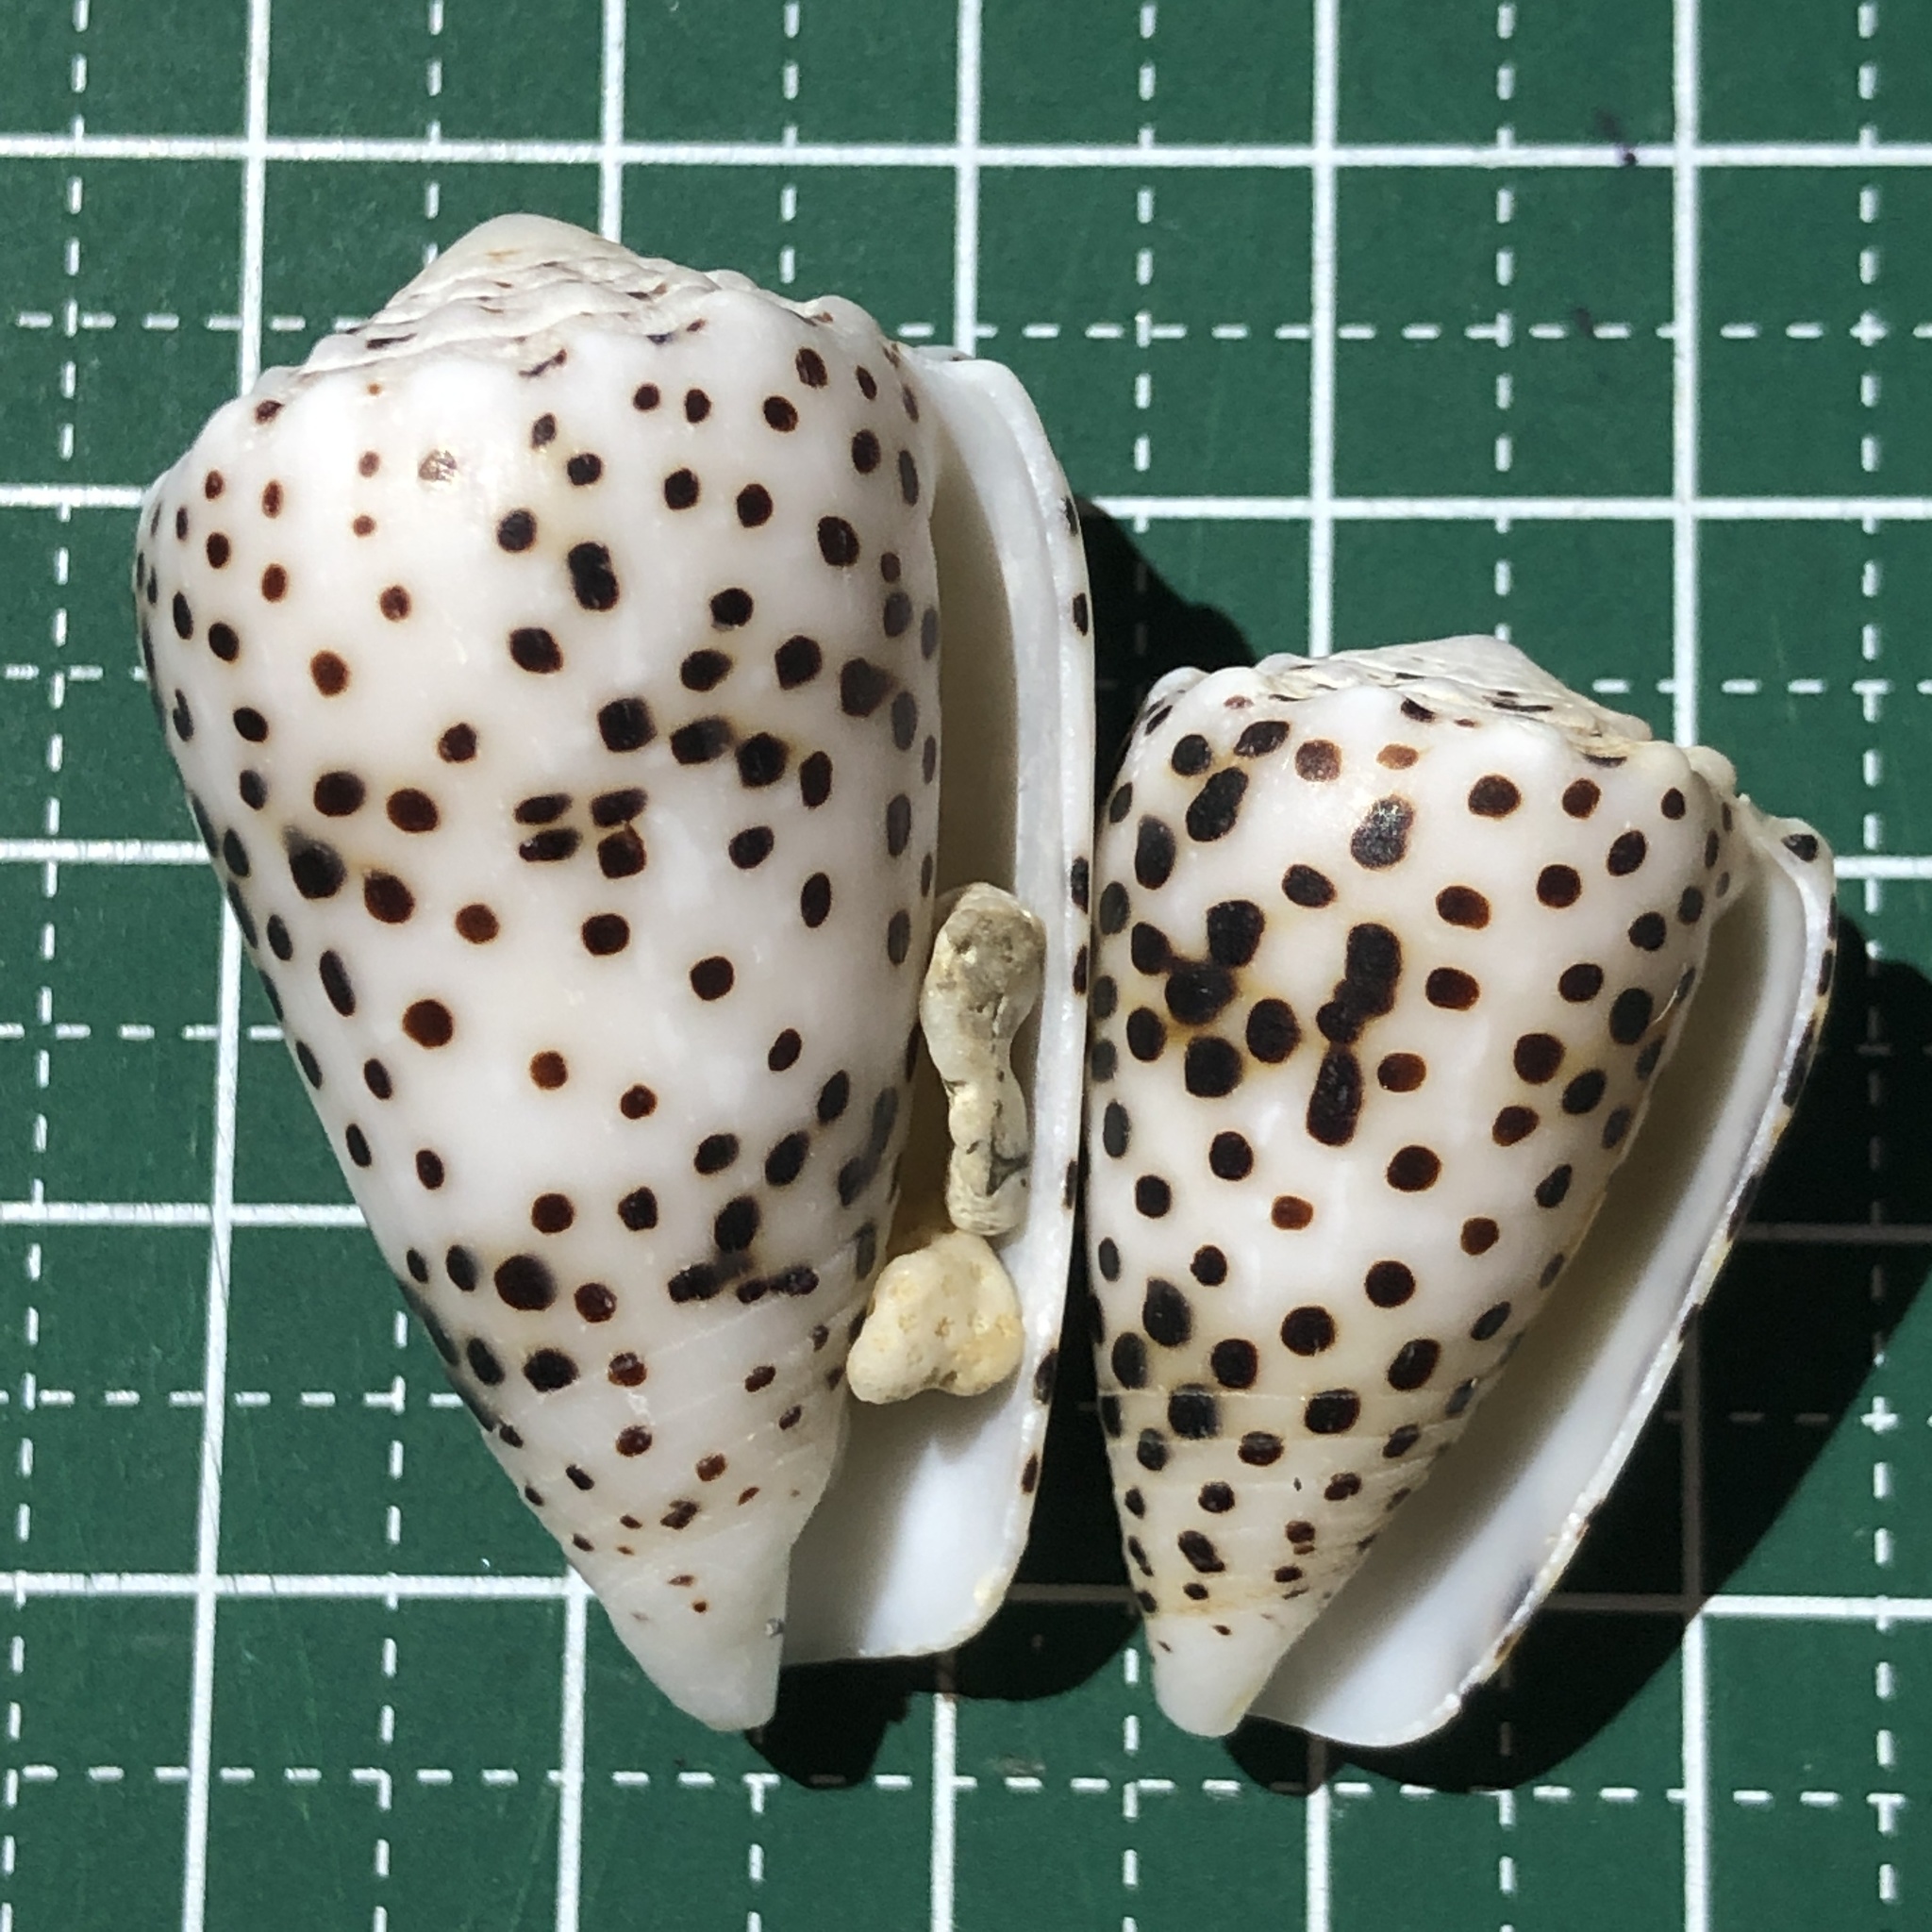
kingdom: Animalia
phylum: Mollusca
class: Gastropoda
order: Neogastropoda
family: Conidae
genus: Conus
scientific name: Conus pulicarius
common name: Flea-bite cone
